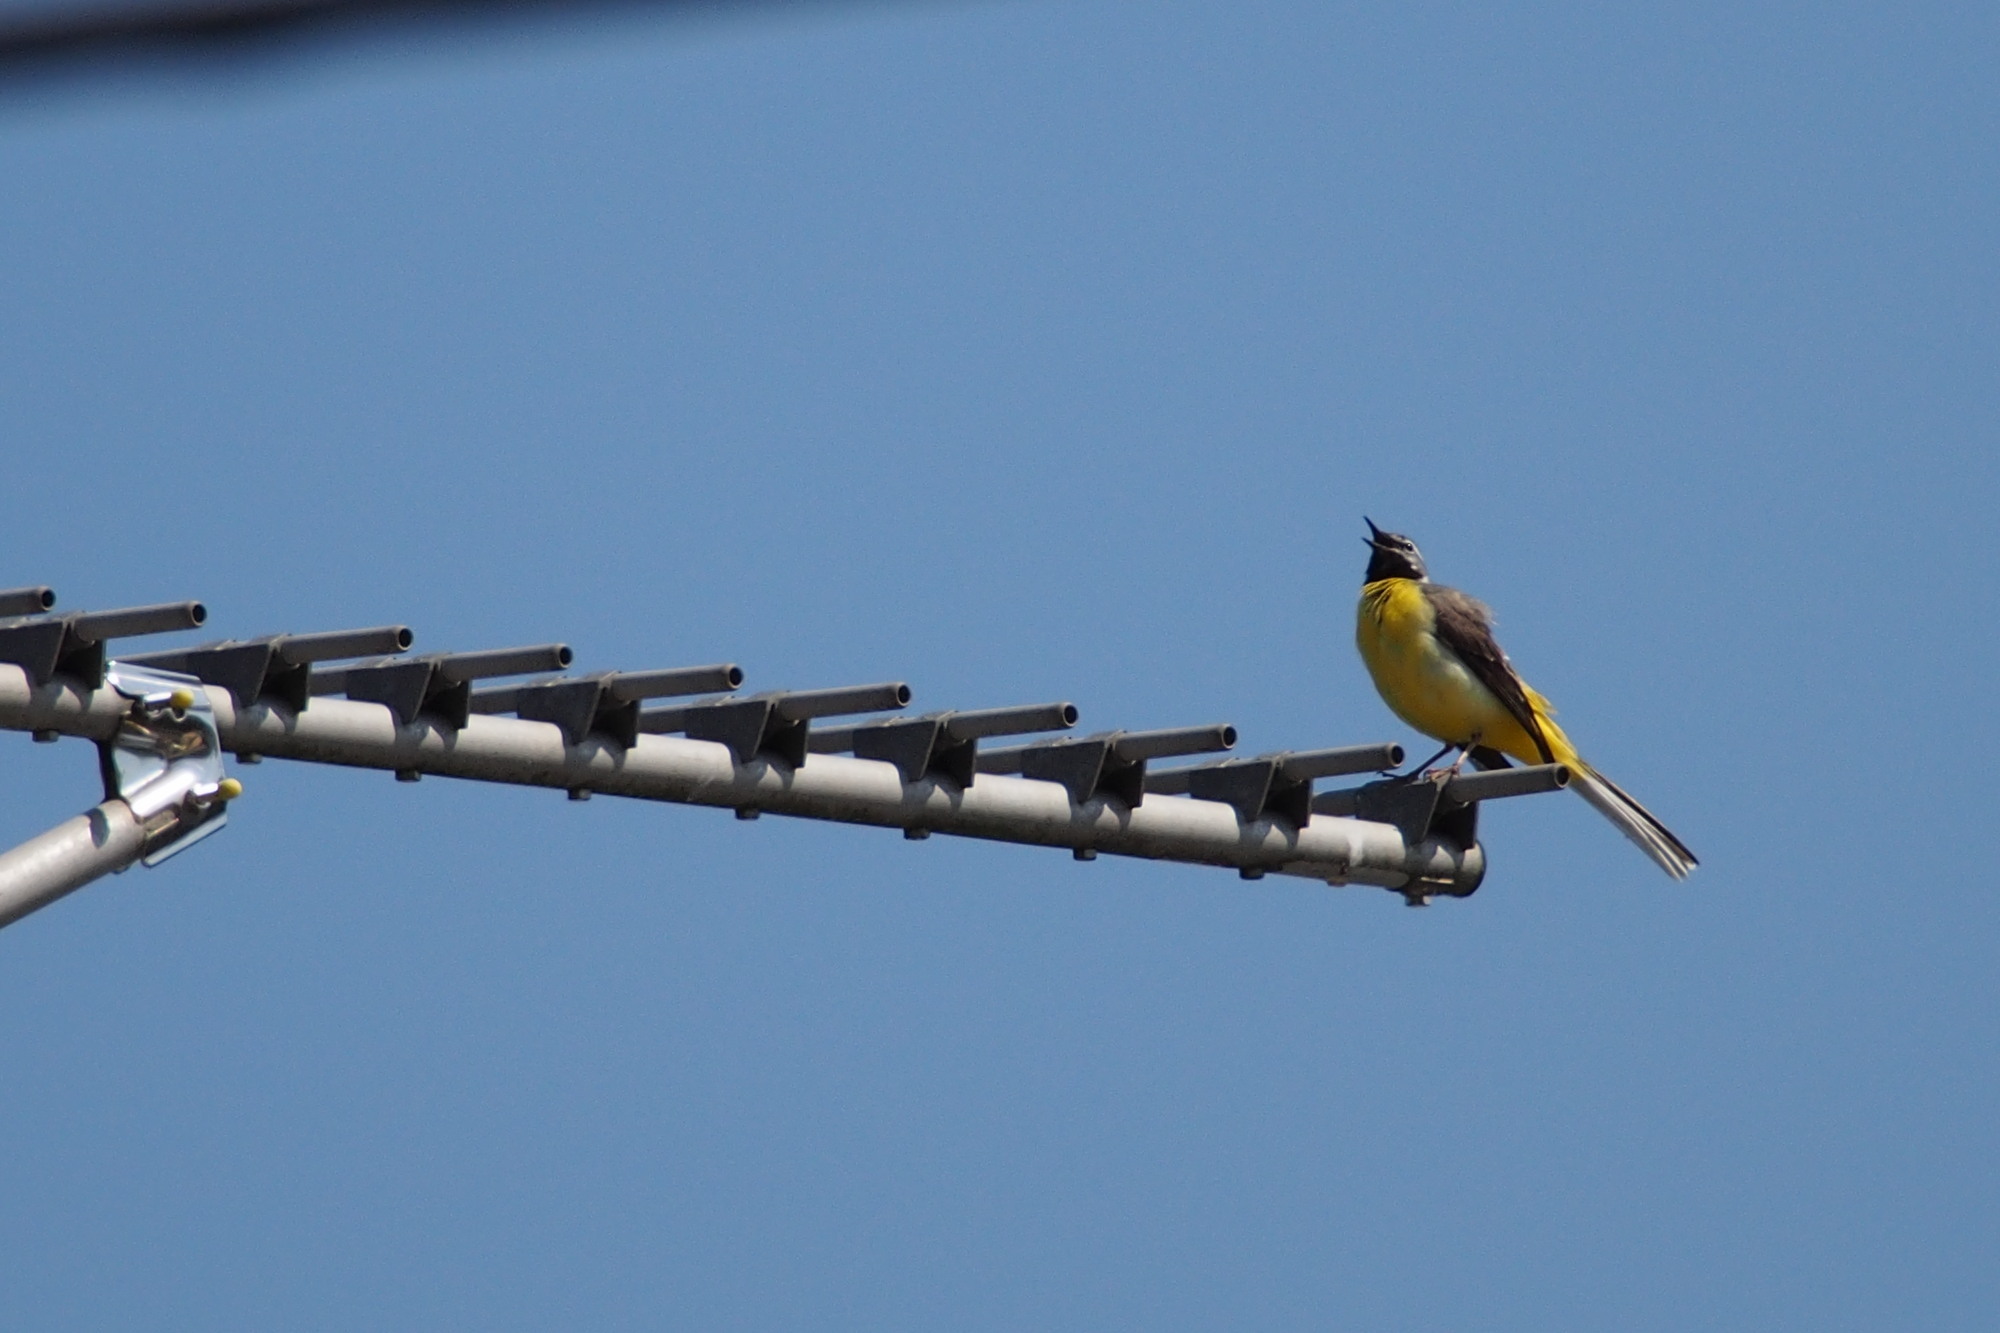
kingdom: Animalia
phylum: Chordata
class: Aves
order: Passeriformes
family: Motacillidae
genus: Motacilla
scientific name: Motacilla cinerea
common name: Grey wagtail
